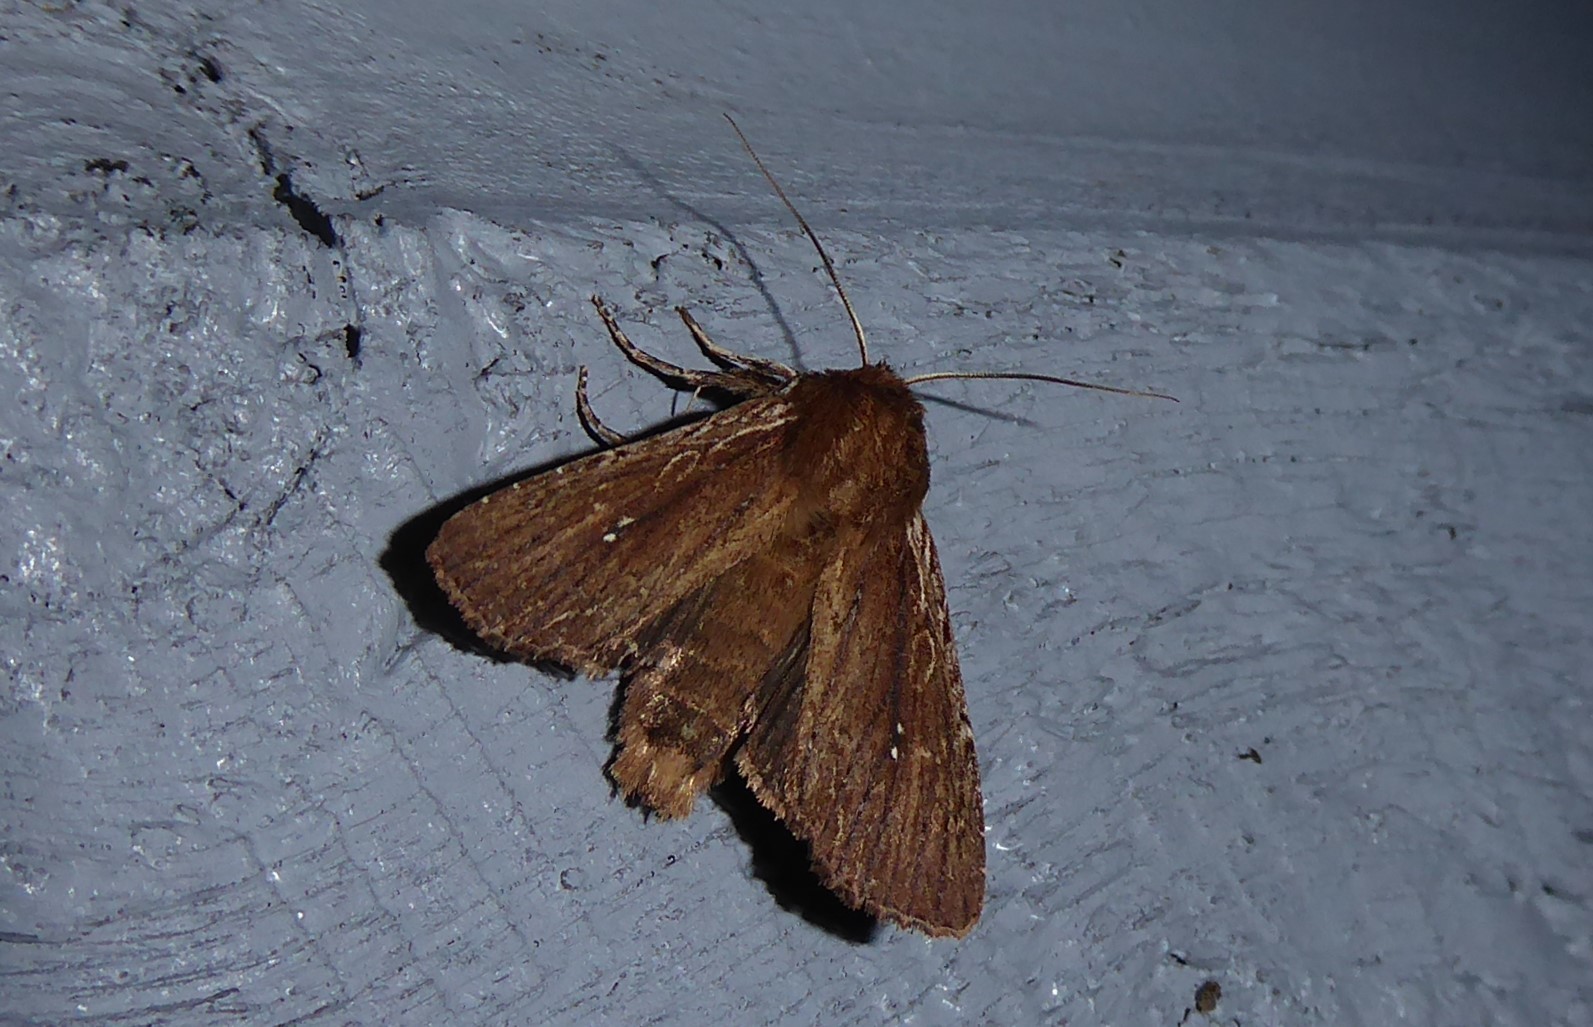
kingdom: Animalia
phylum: Arthropoda
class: Insecta
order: Lepidoptera
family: Noctuidae
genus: Ichneutica
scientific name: Ichneutica
